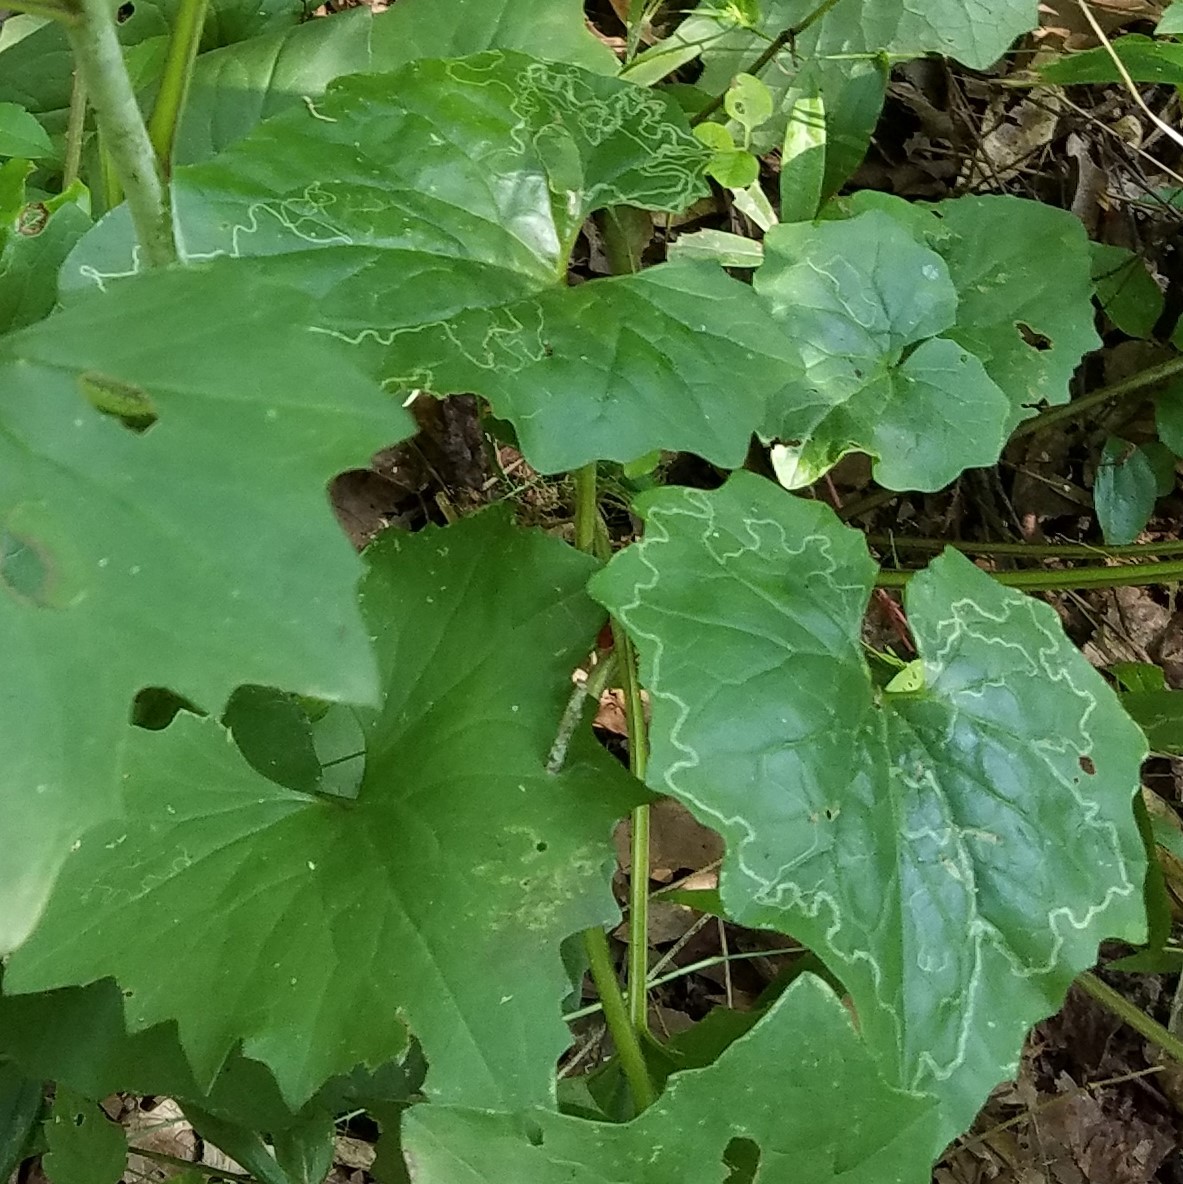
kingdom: Animalia
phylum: Arthropoda
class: Insecta
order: Lepidoptera
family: Gracillariidae
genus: Phyllocnistis
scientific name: Phyllocnistis insignis
